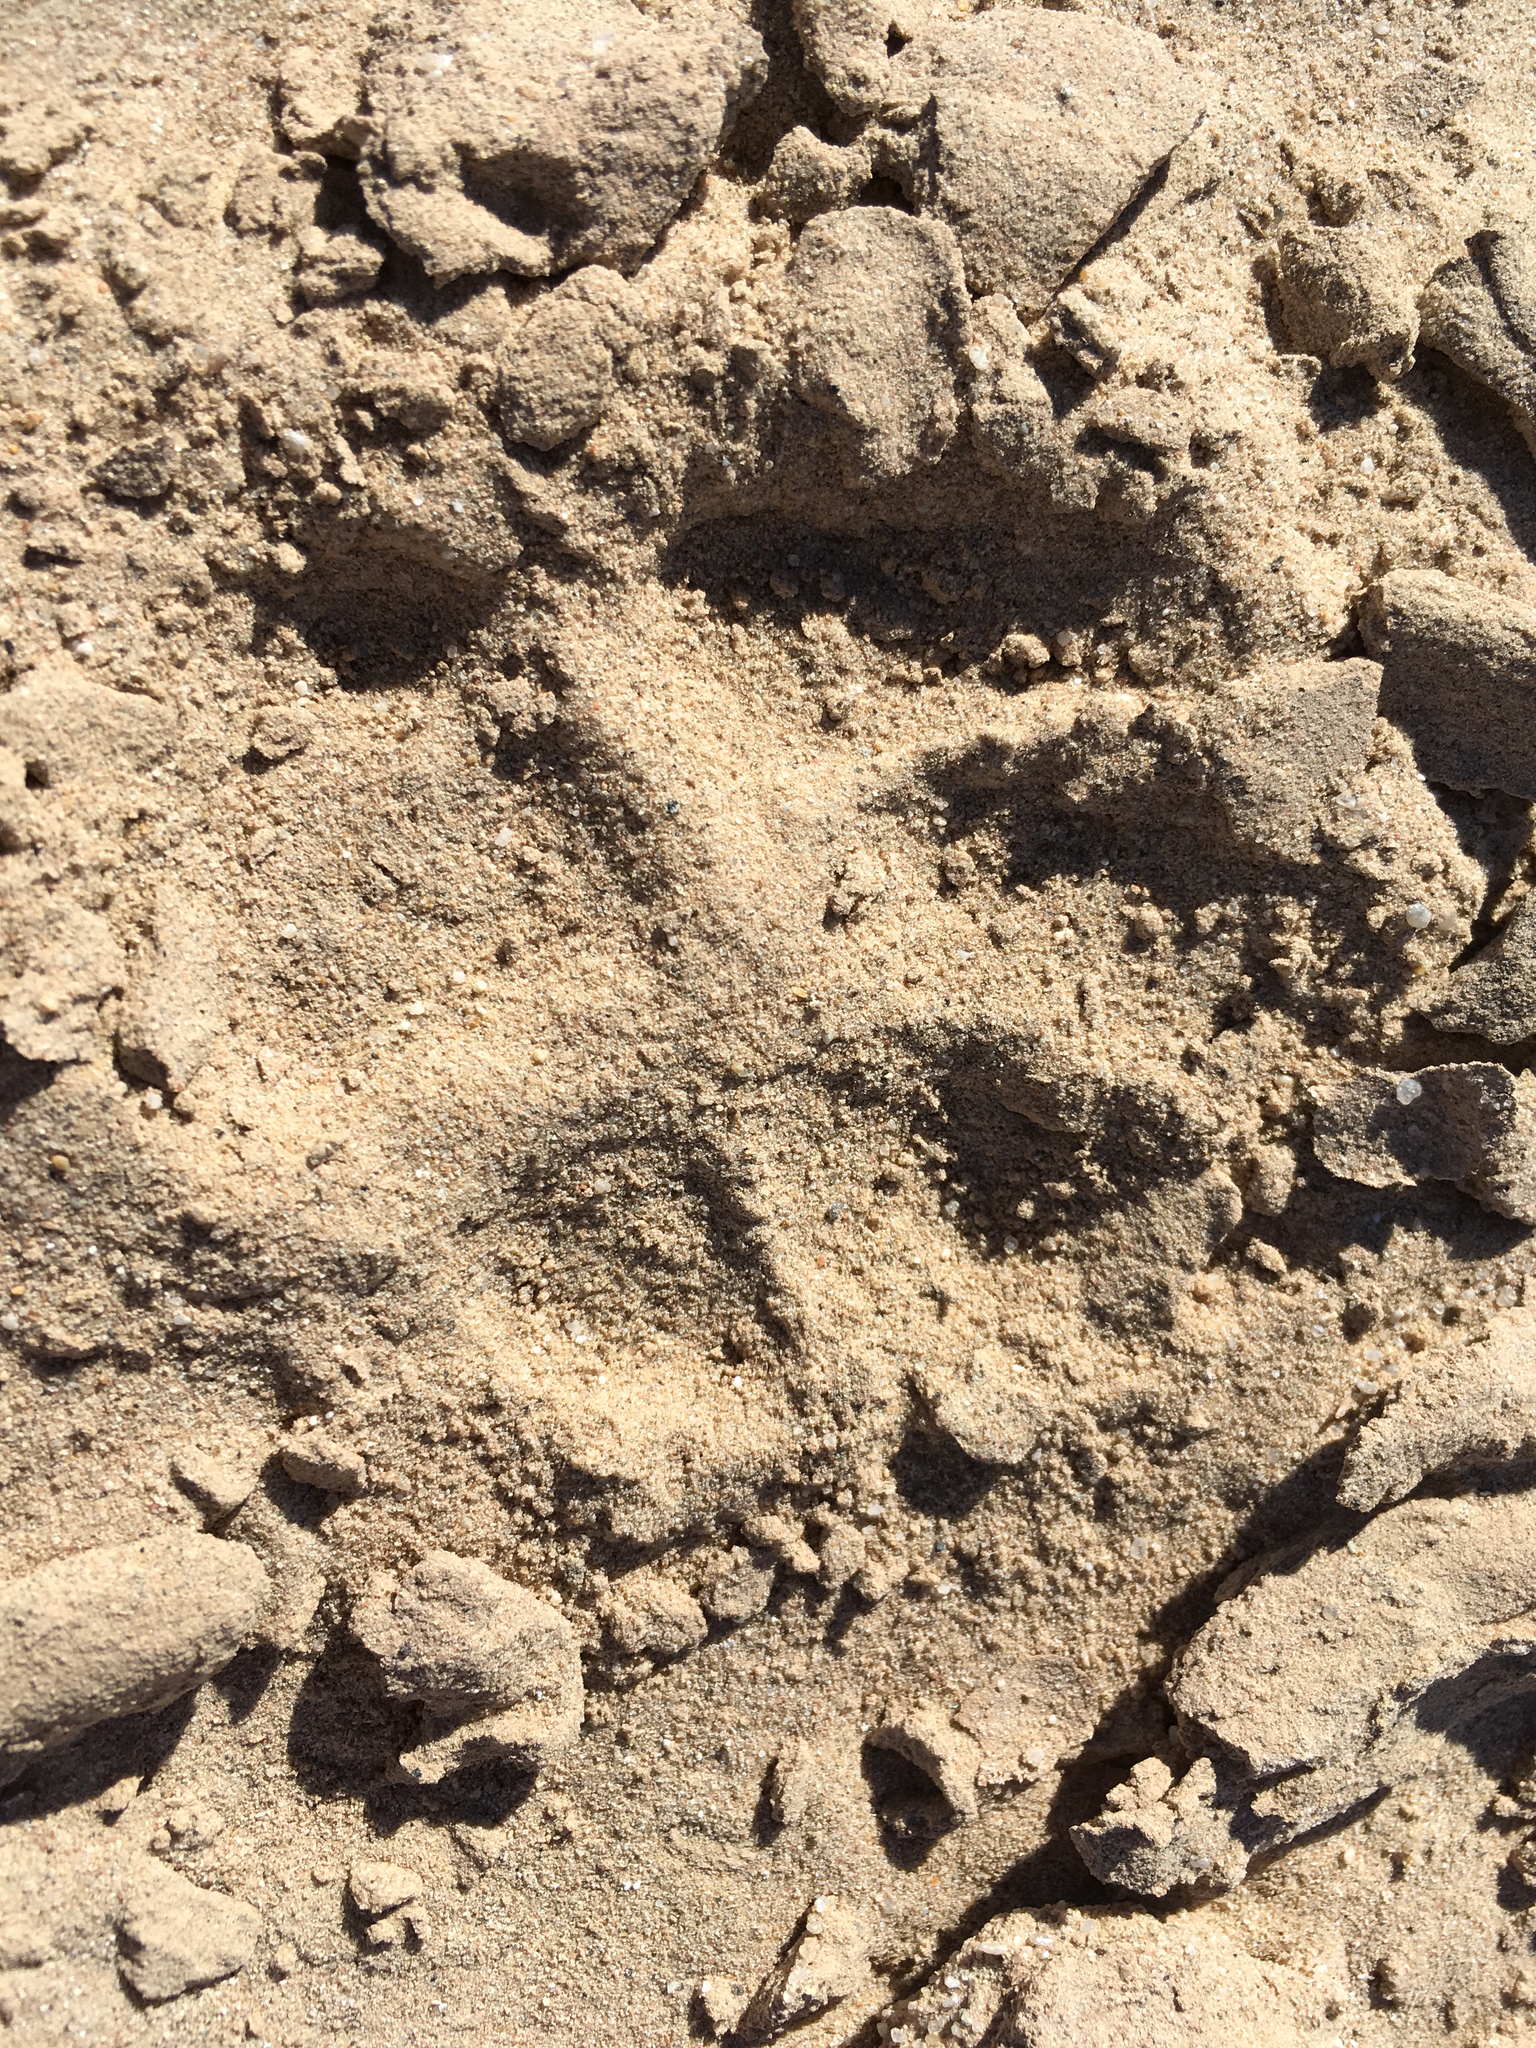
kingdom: Animalia
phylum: Chordata
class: Mammalia
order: Carnivora
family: Canidae
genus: Canis
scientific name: Canis lupus
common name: Gray wolf
